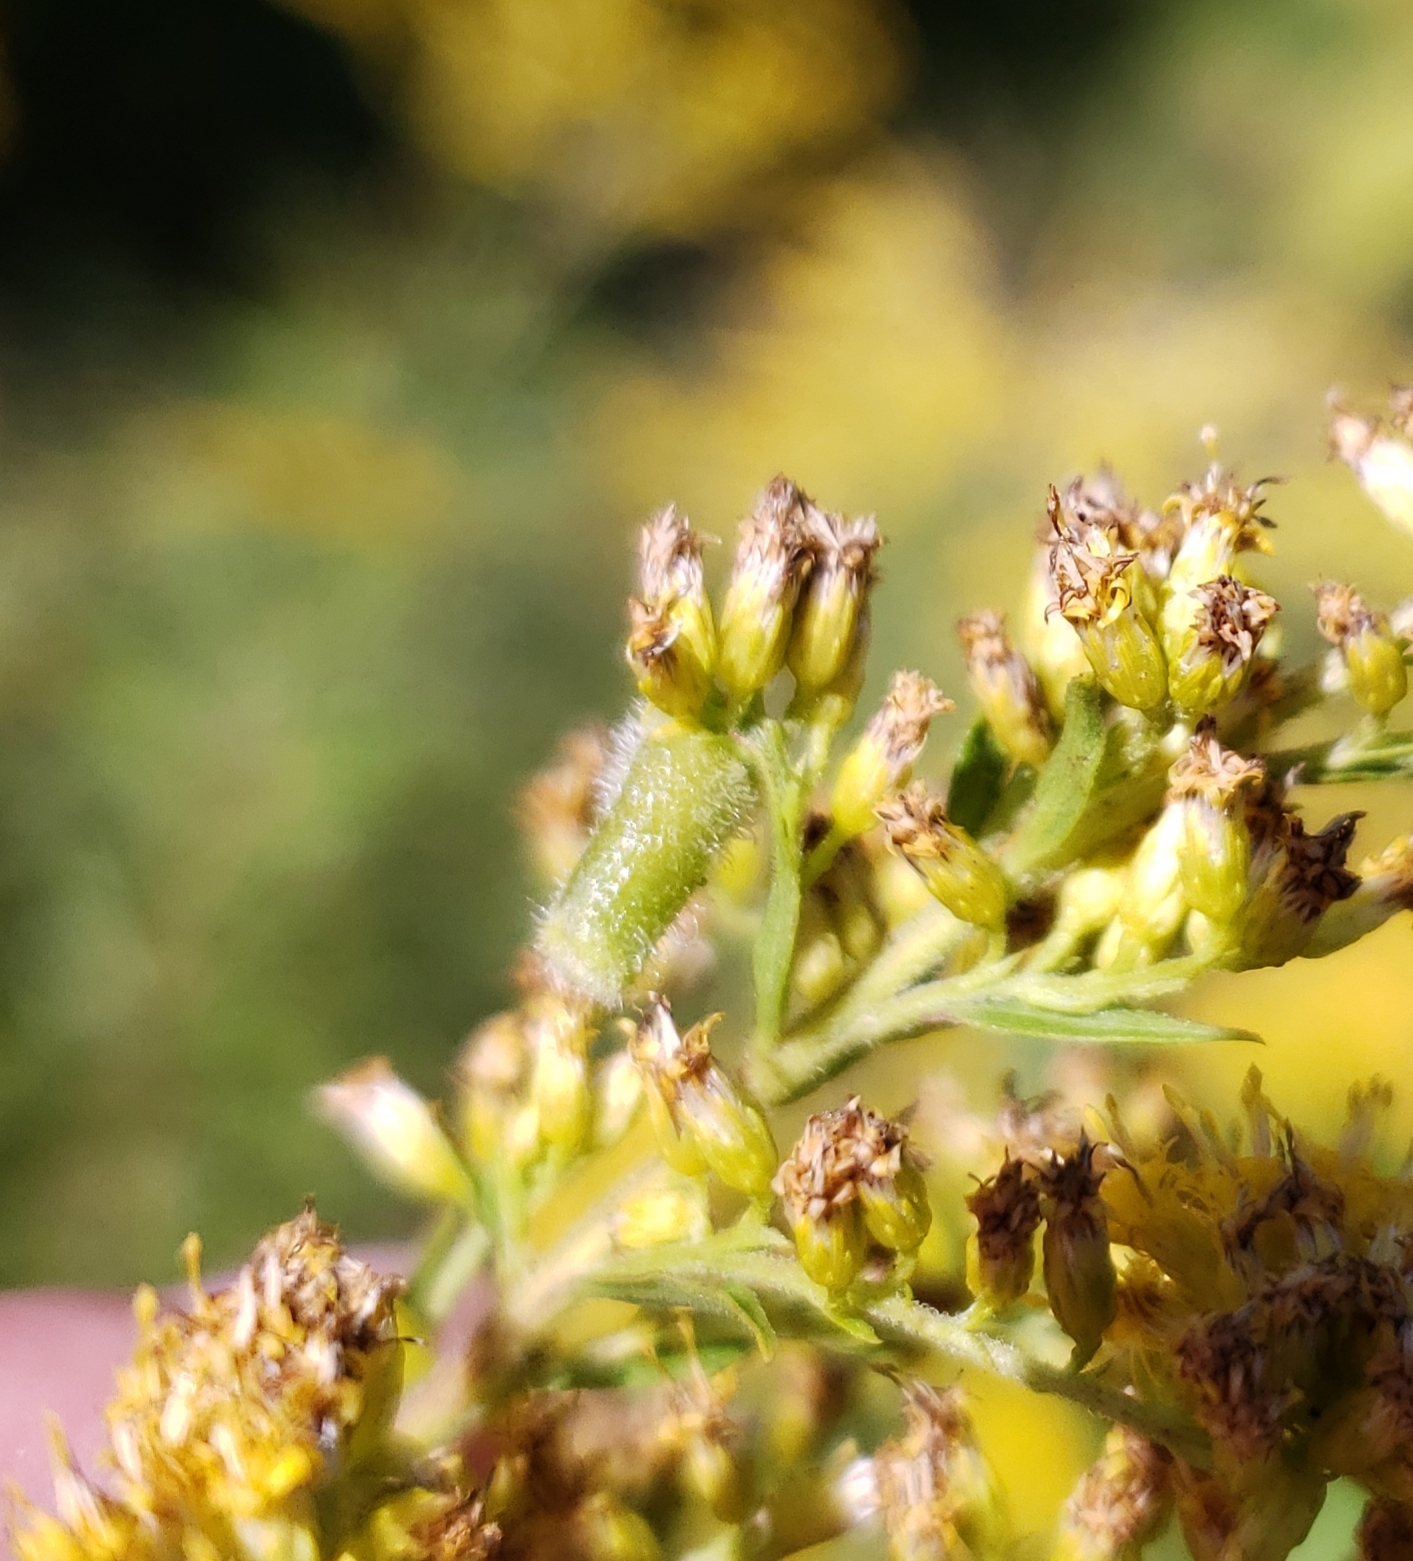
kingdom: Animalia
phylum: Arthropoda
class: Insecta
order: Diptera
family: Cecidomyiidae
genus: Rhopalomyia
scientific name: Rhopalomyia anthophila
